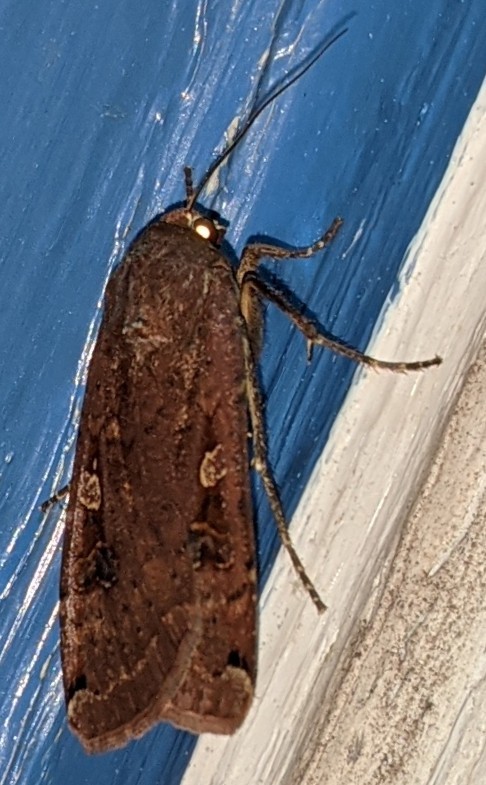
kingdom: Animalia
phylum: Arthropoda
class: Insecta
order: Lepidoptera
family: Noctuidae
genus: Noctua
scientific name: Noctua pronuba
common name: Large yellow underwing
